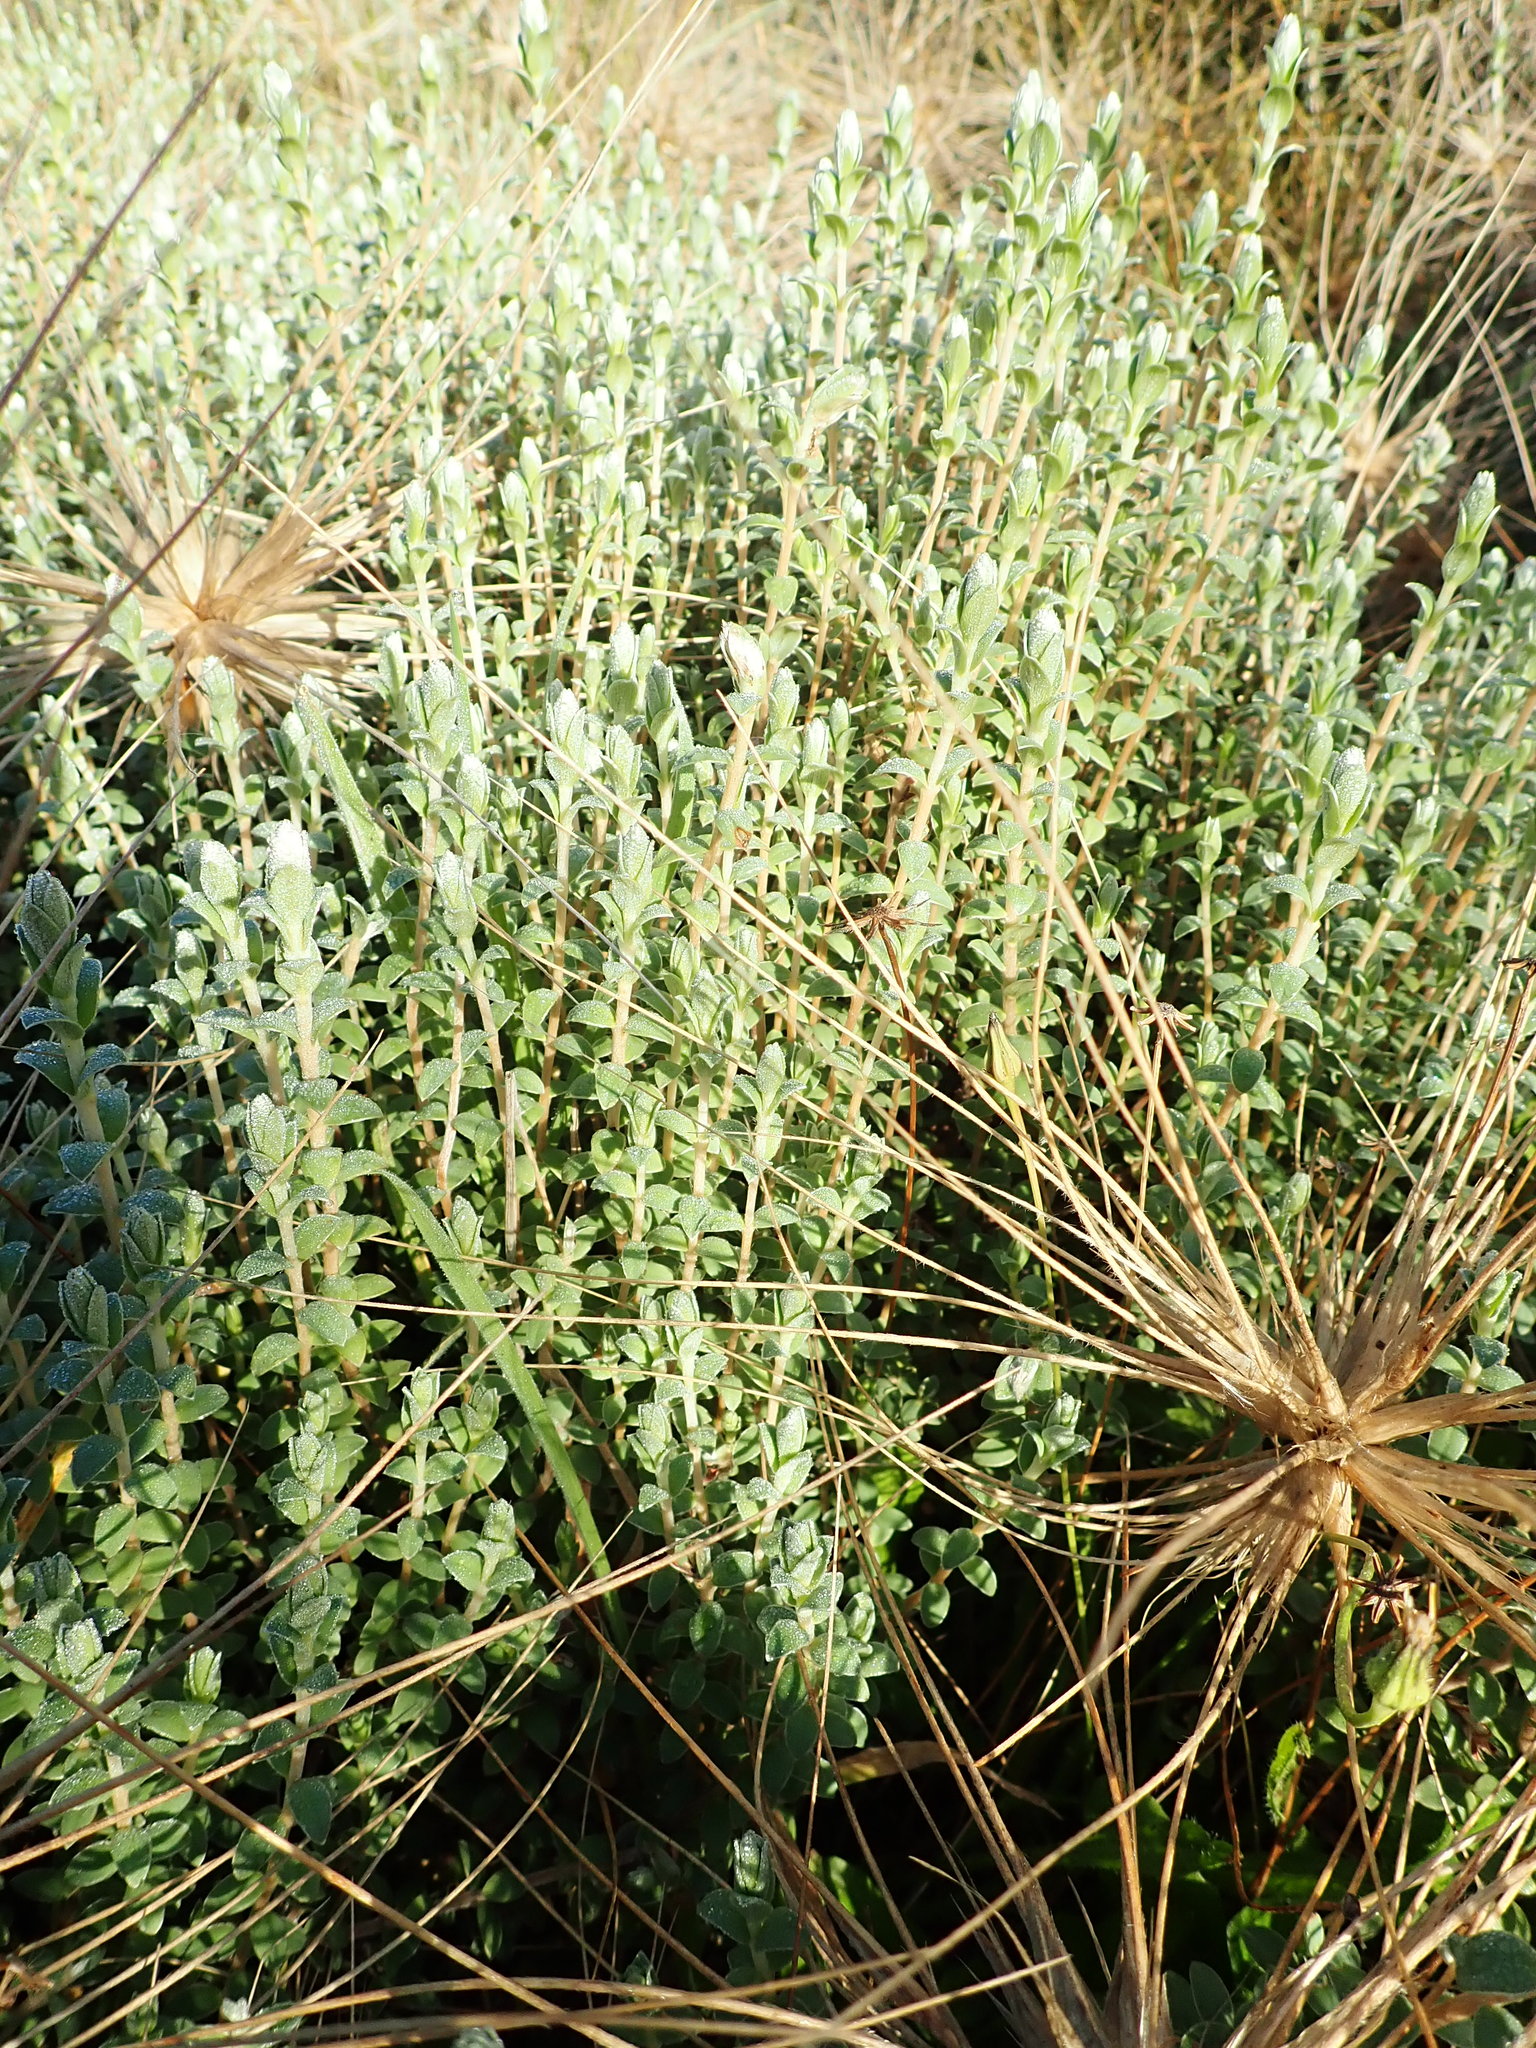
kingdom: Plantae
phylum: Tracheophyta
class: Magnoliopsida
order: Malvales
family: Thymelaeaceae
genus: Pimelea
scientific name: Pimelea villosa
